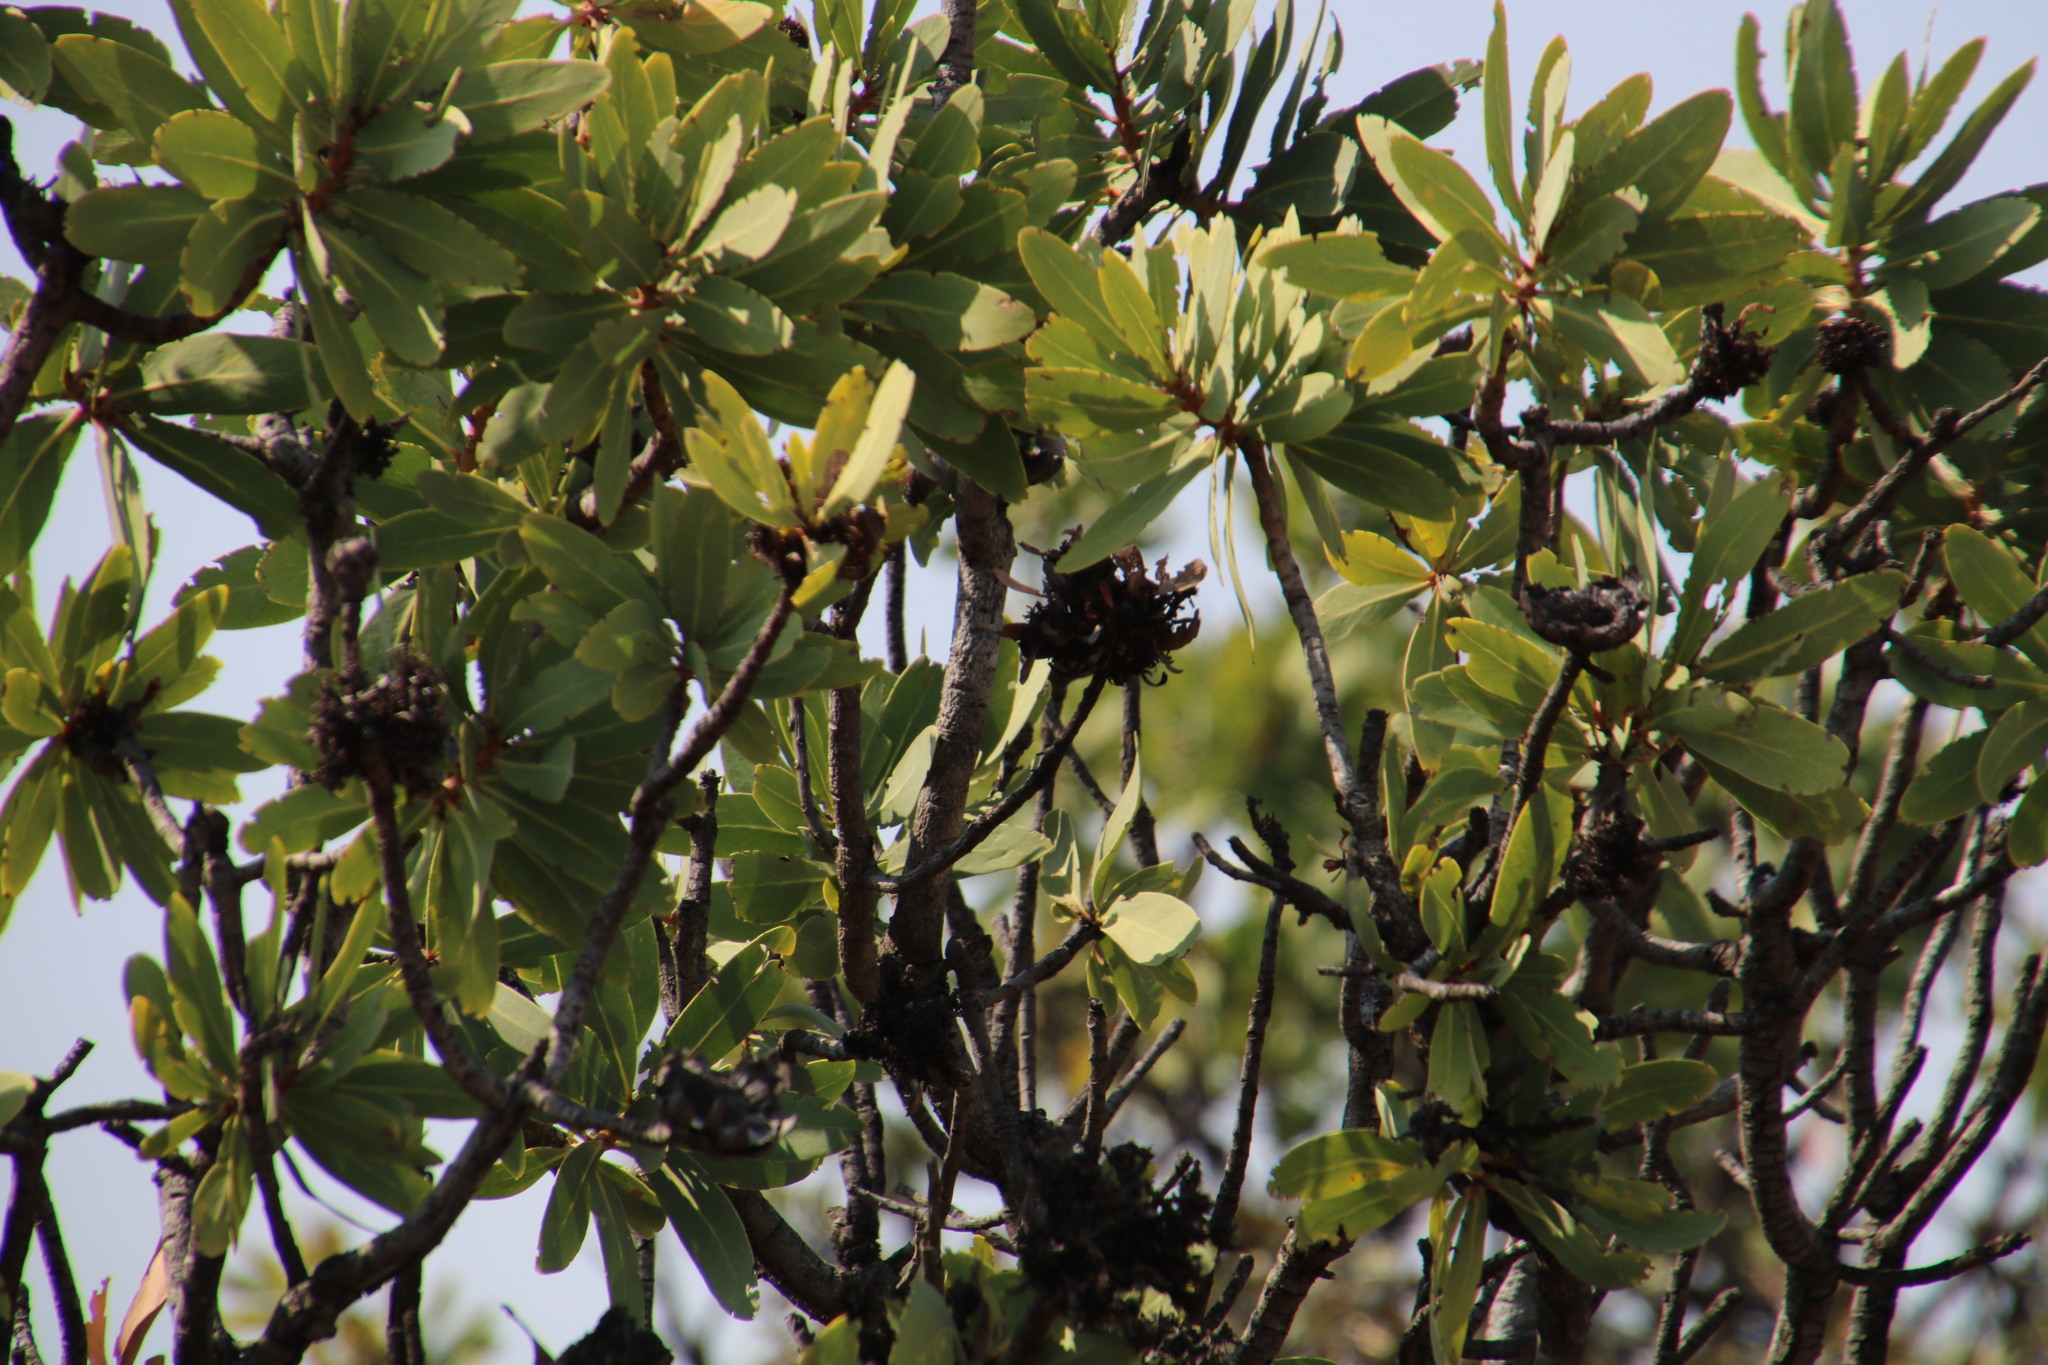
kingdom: Plantae
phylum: Tracheophyta
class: Magnoliopsida
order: Proteales
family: Proteaceae
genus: Protea
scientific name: Protea caffra
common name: Common sugarbush
